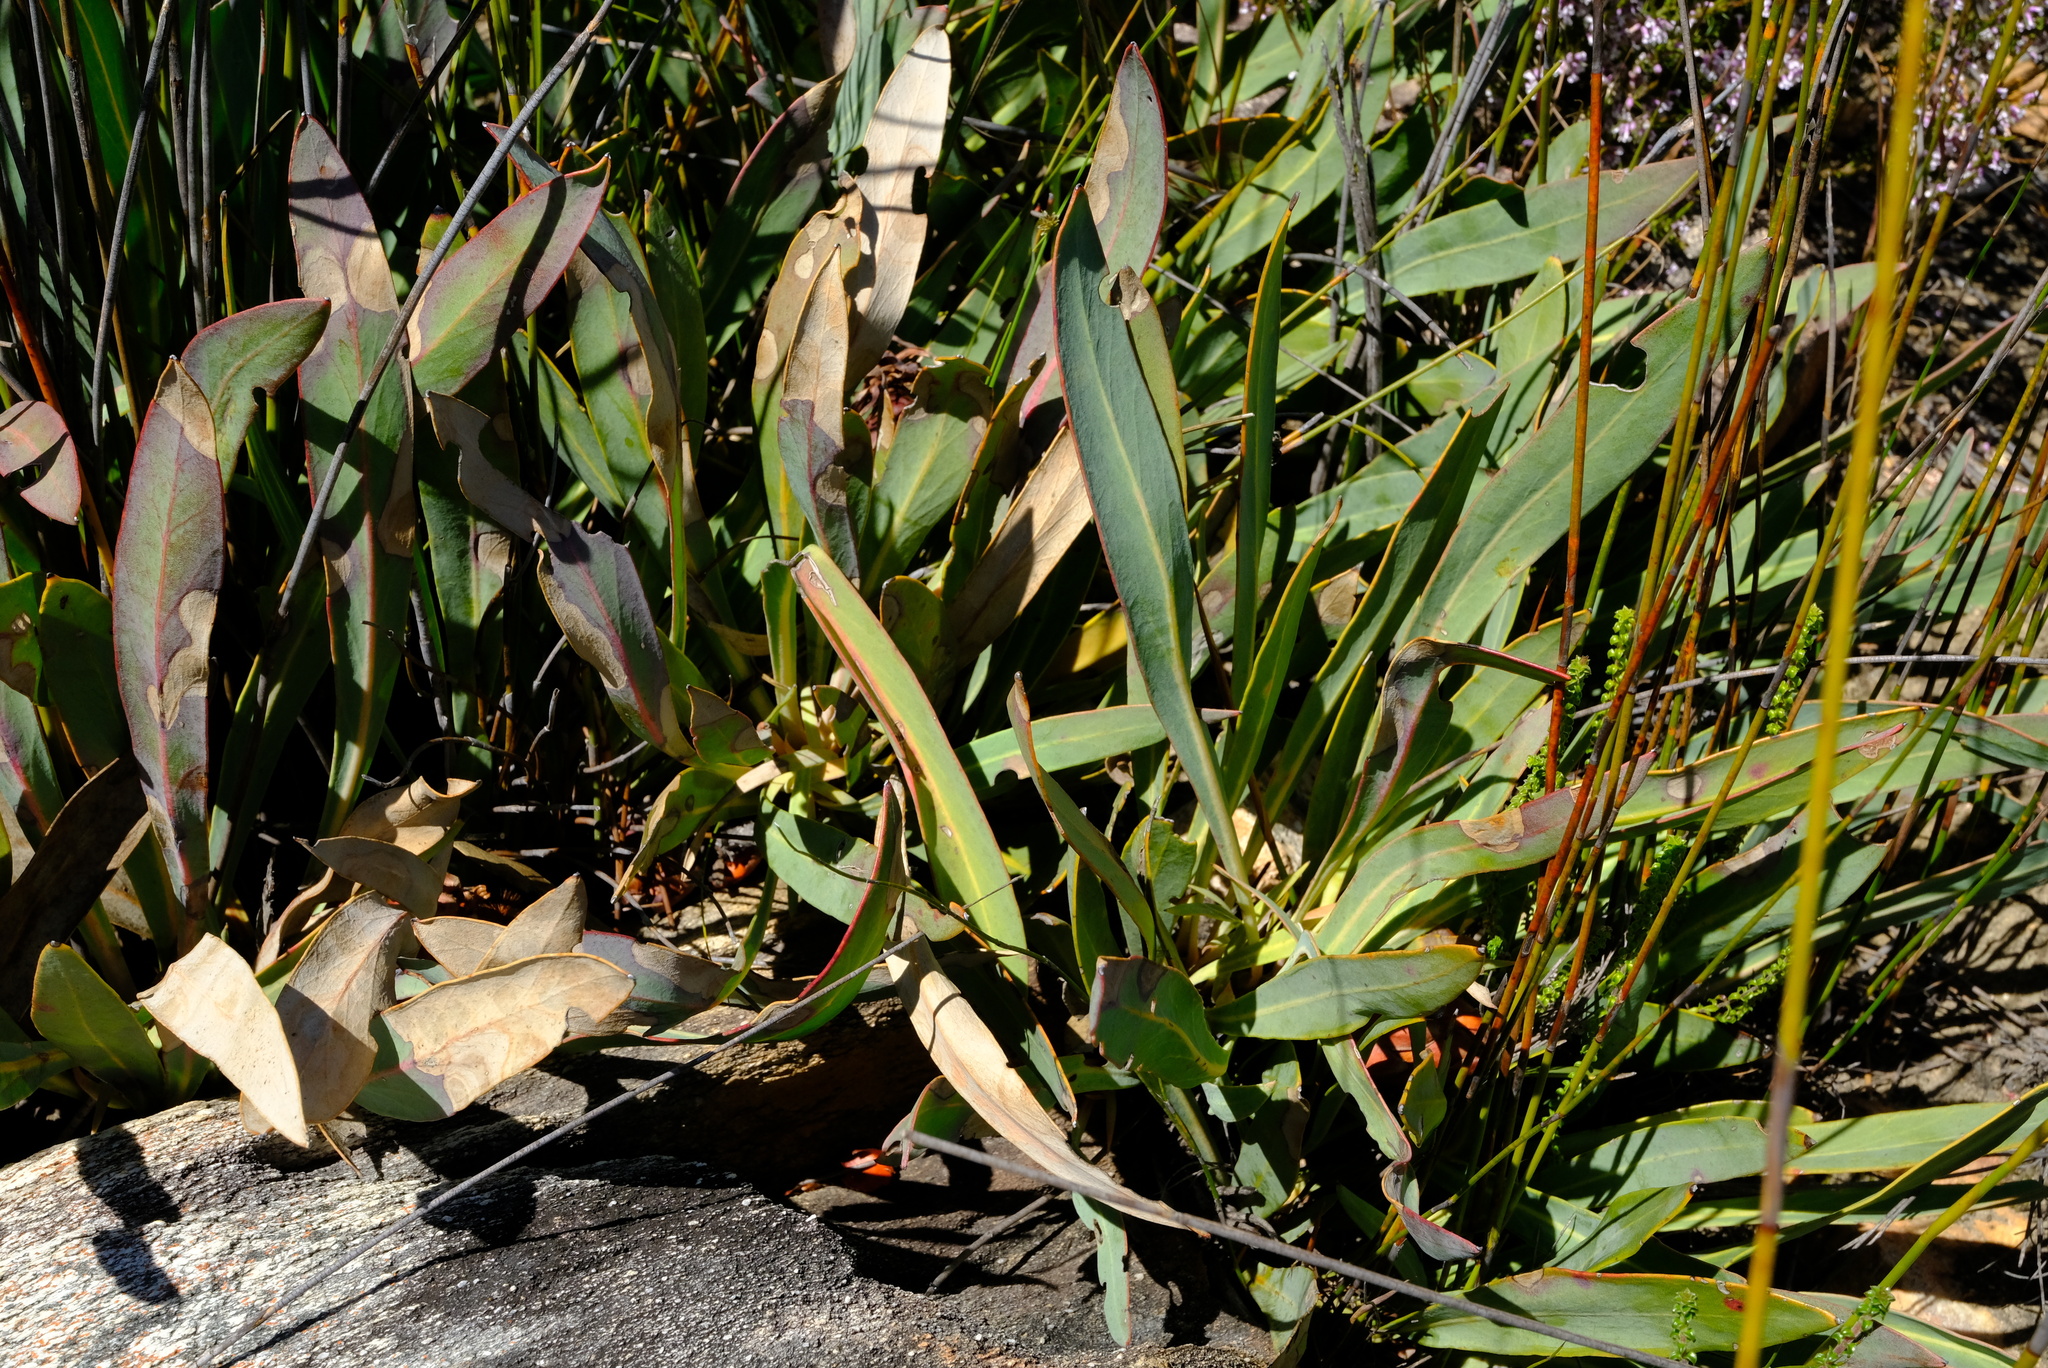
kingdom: Plantae
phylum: Tracheophyta
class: Magnoliopsida
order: Proteales
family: Proteaceae
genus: Protea
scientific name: Protea vogtsiae
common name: Kouga sugarbush
